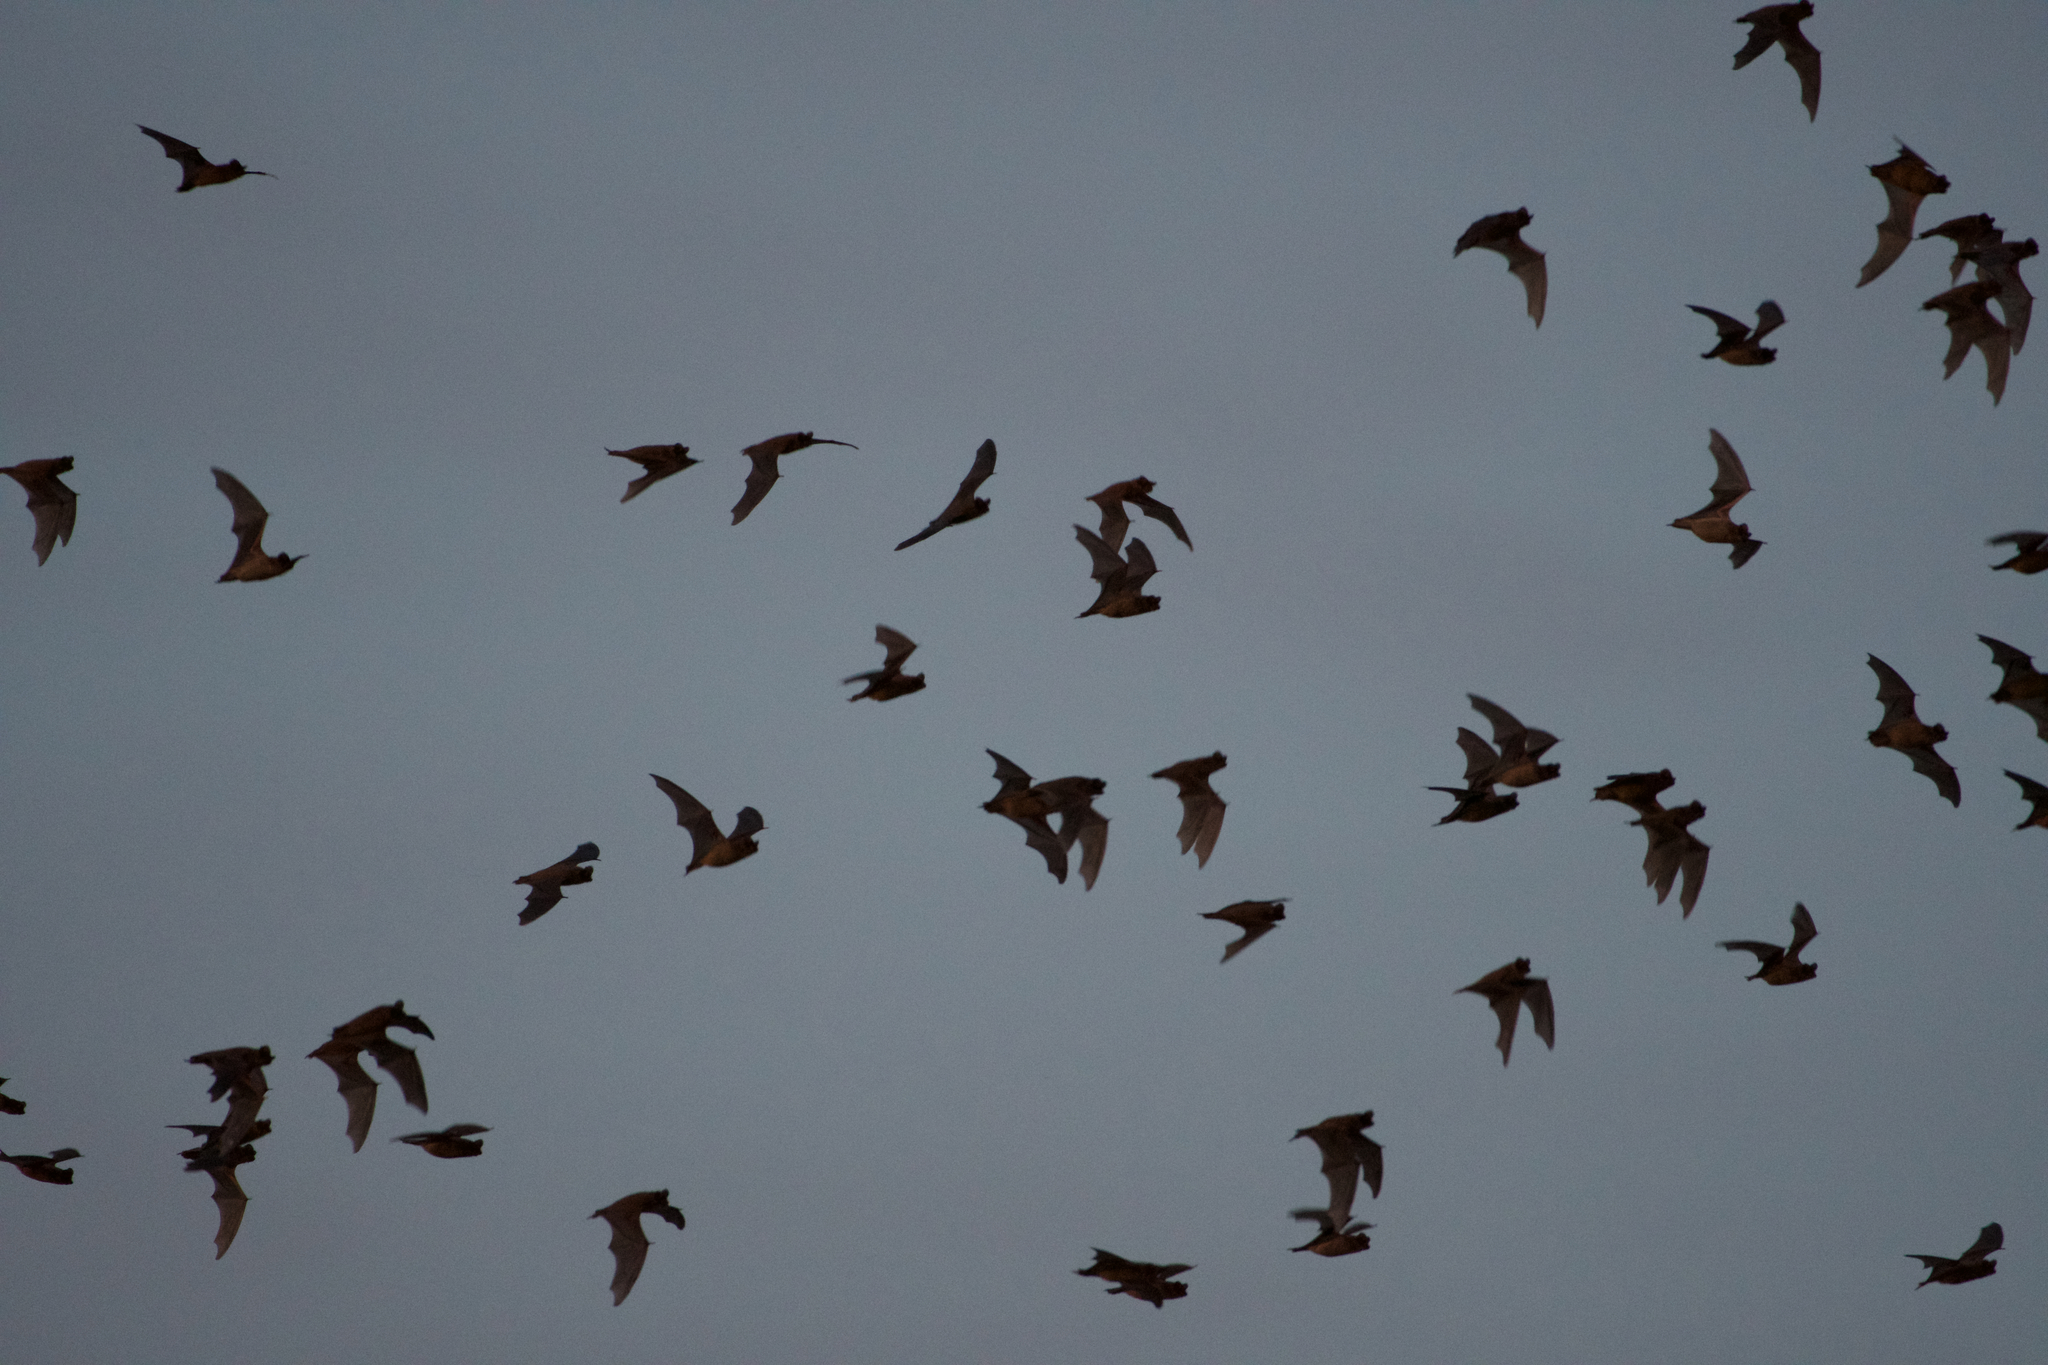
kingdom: Animalia
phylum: Chordata
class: Mammalia
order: Chiroptera
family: Molossidae
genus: Tadarida
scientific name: Tadarida brasiliensis
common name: Mexican free-tailed bat
